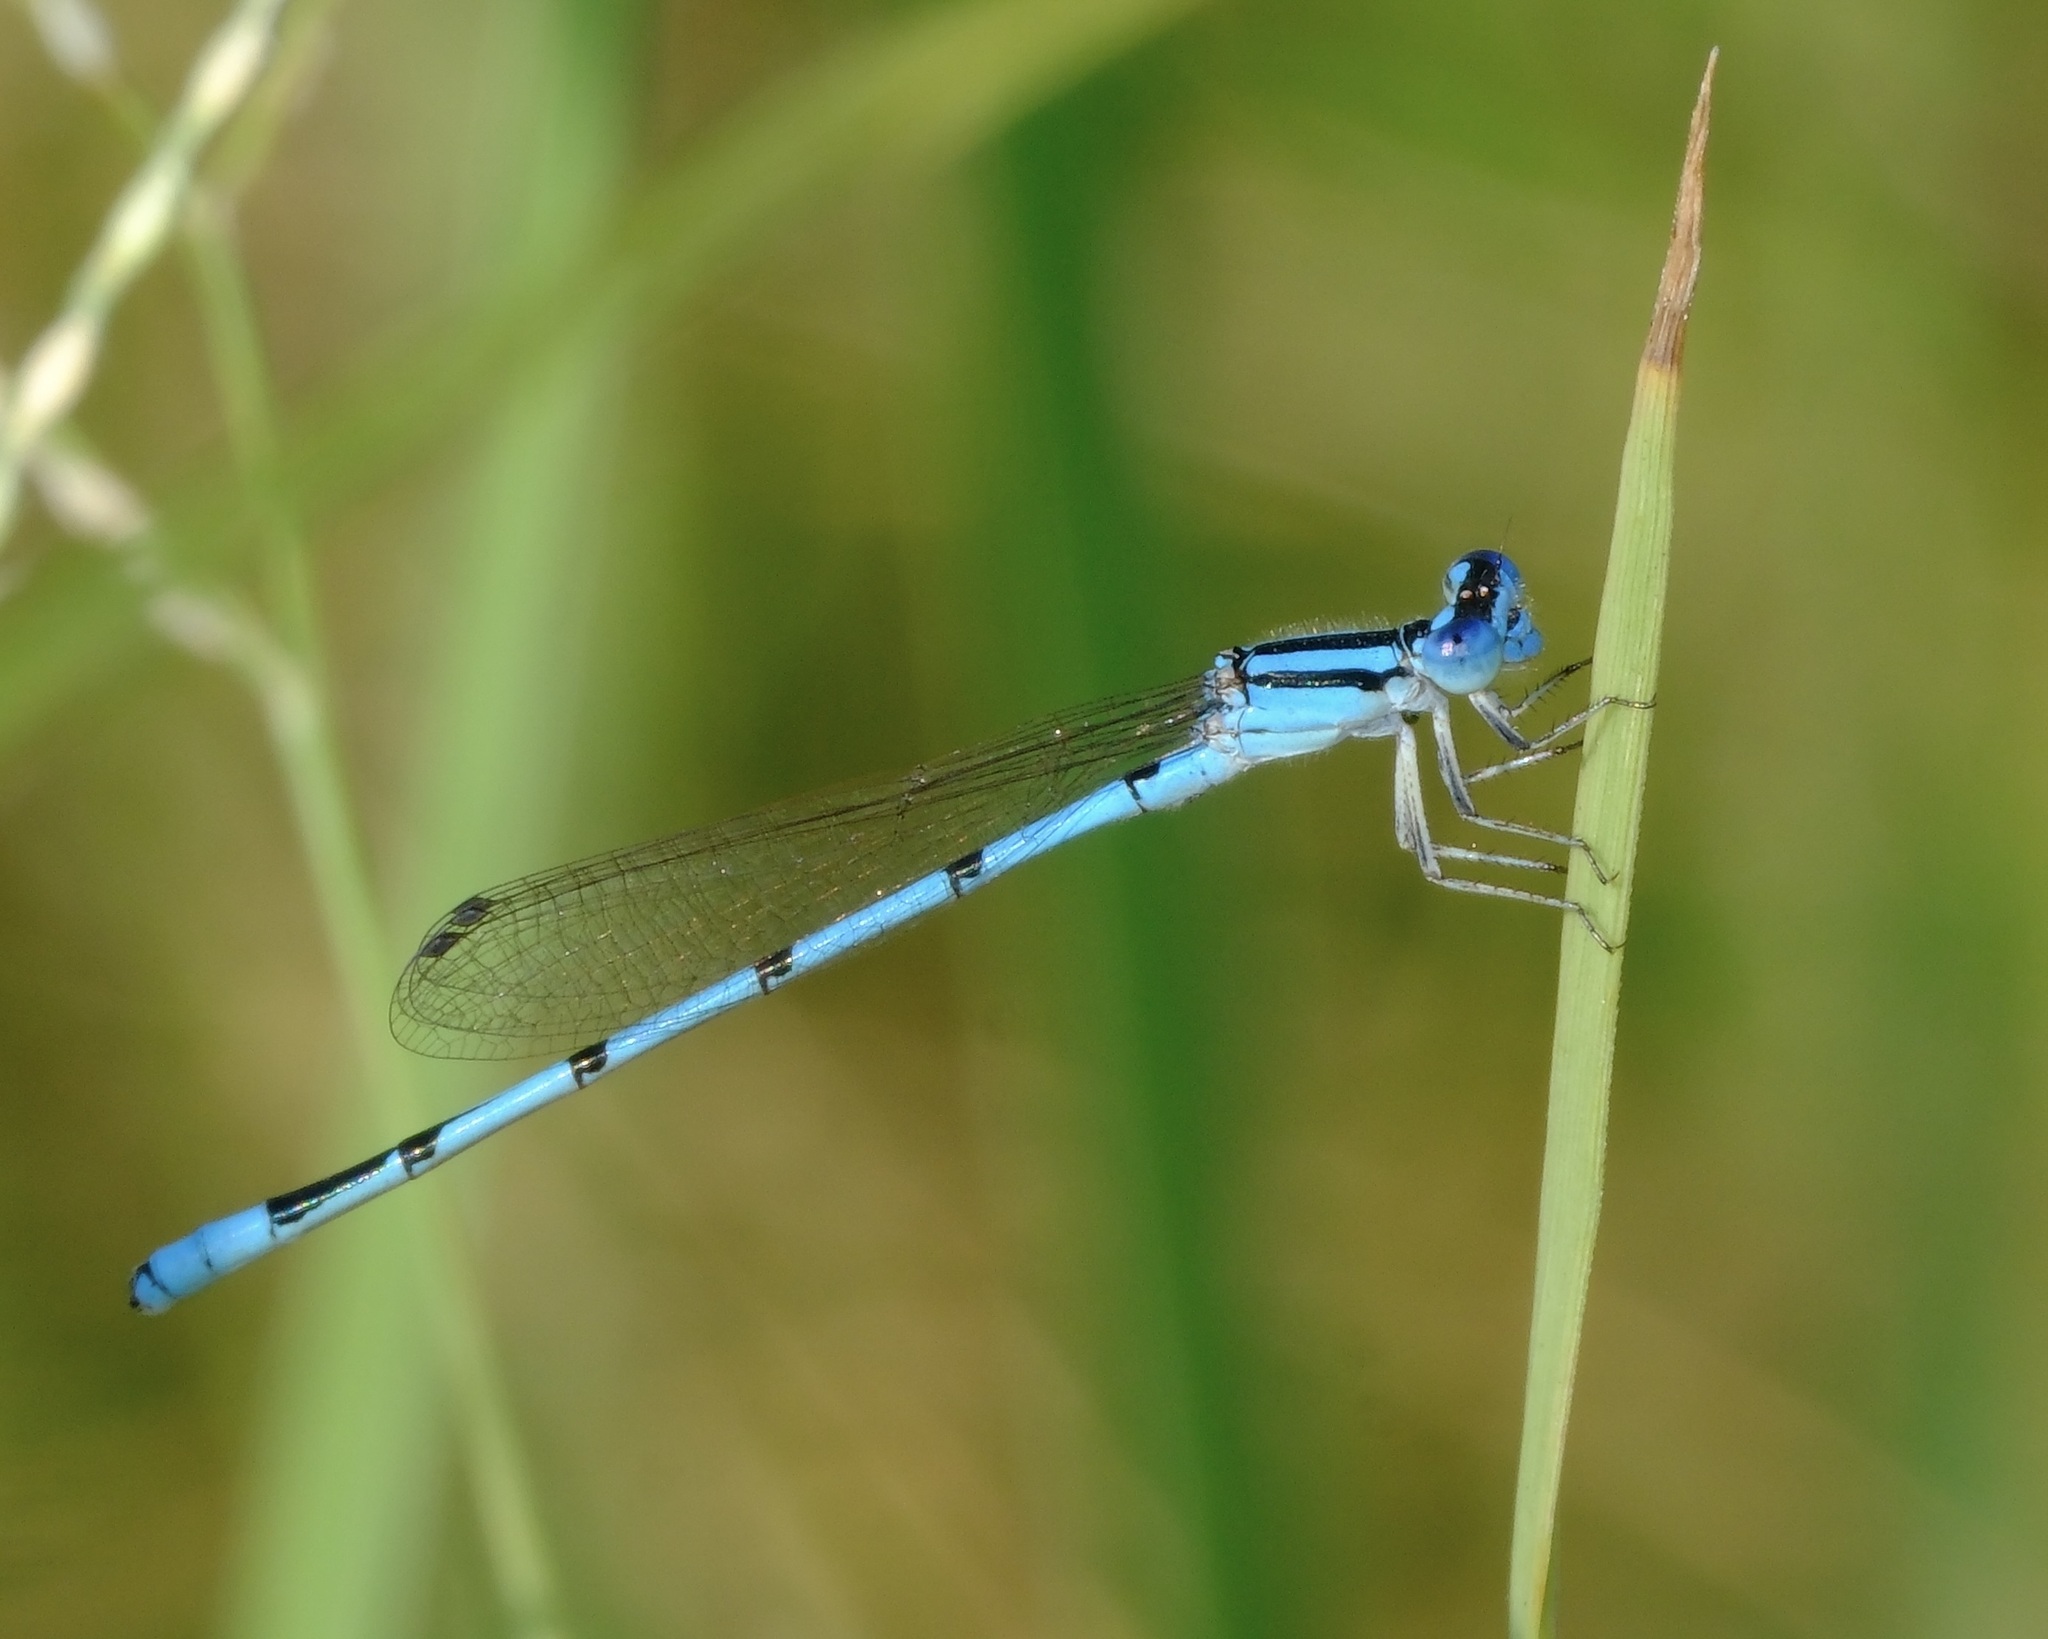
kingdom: Animalia
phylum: Arthropoda
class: Insecta
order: Odonata
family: Coenagrionidae
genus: Enallagma
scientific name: Enallagma doubledayi
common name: Atlantic bluet
